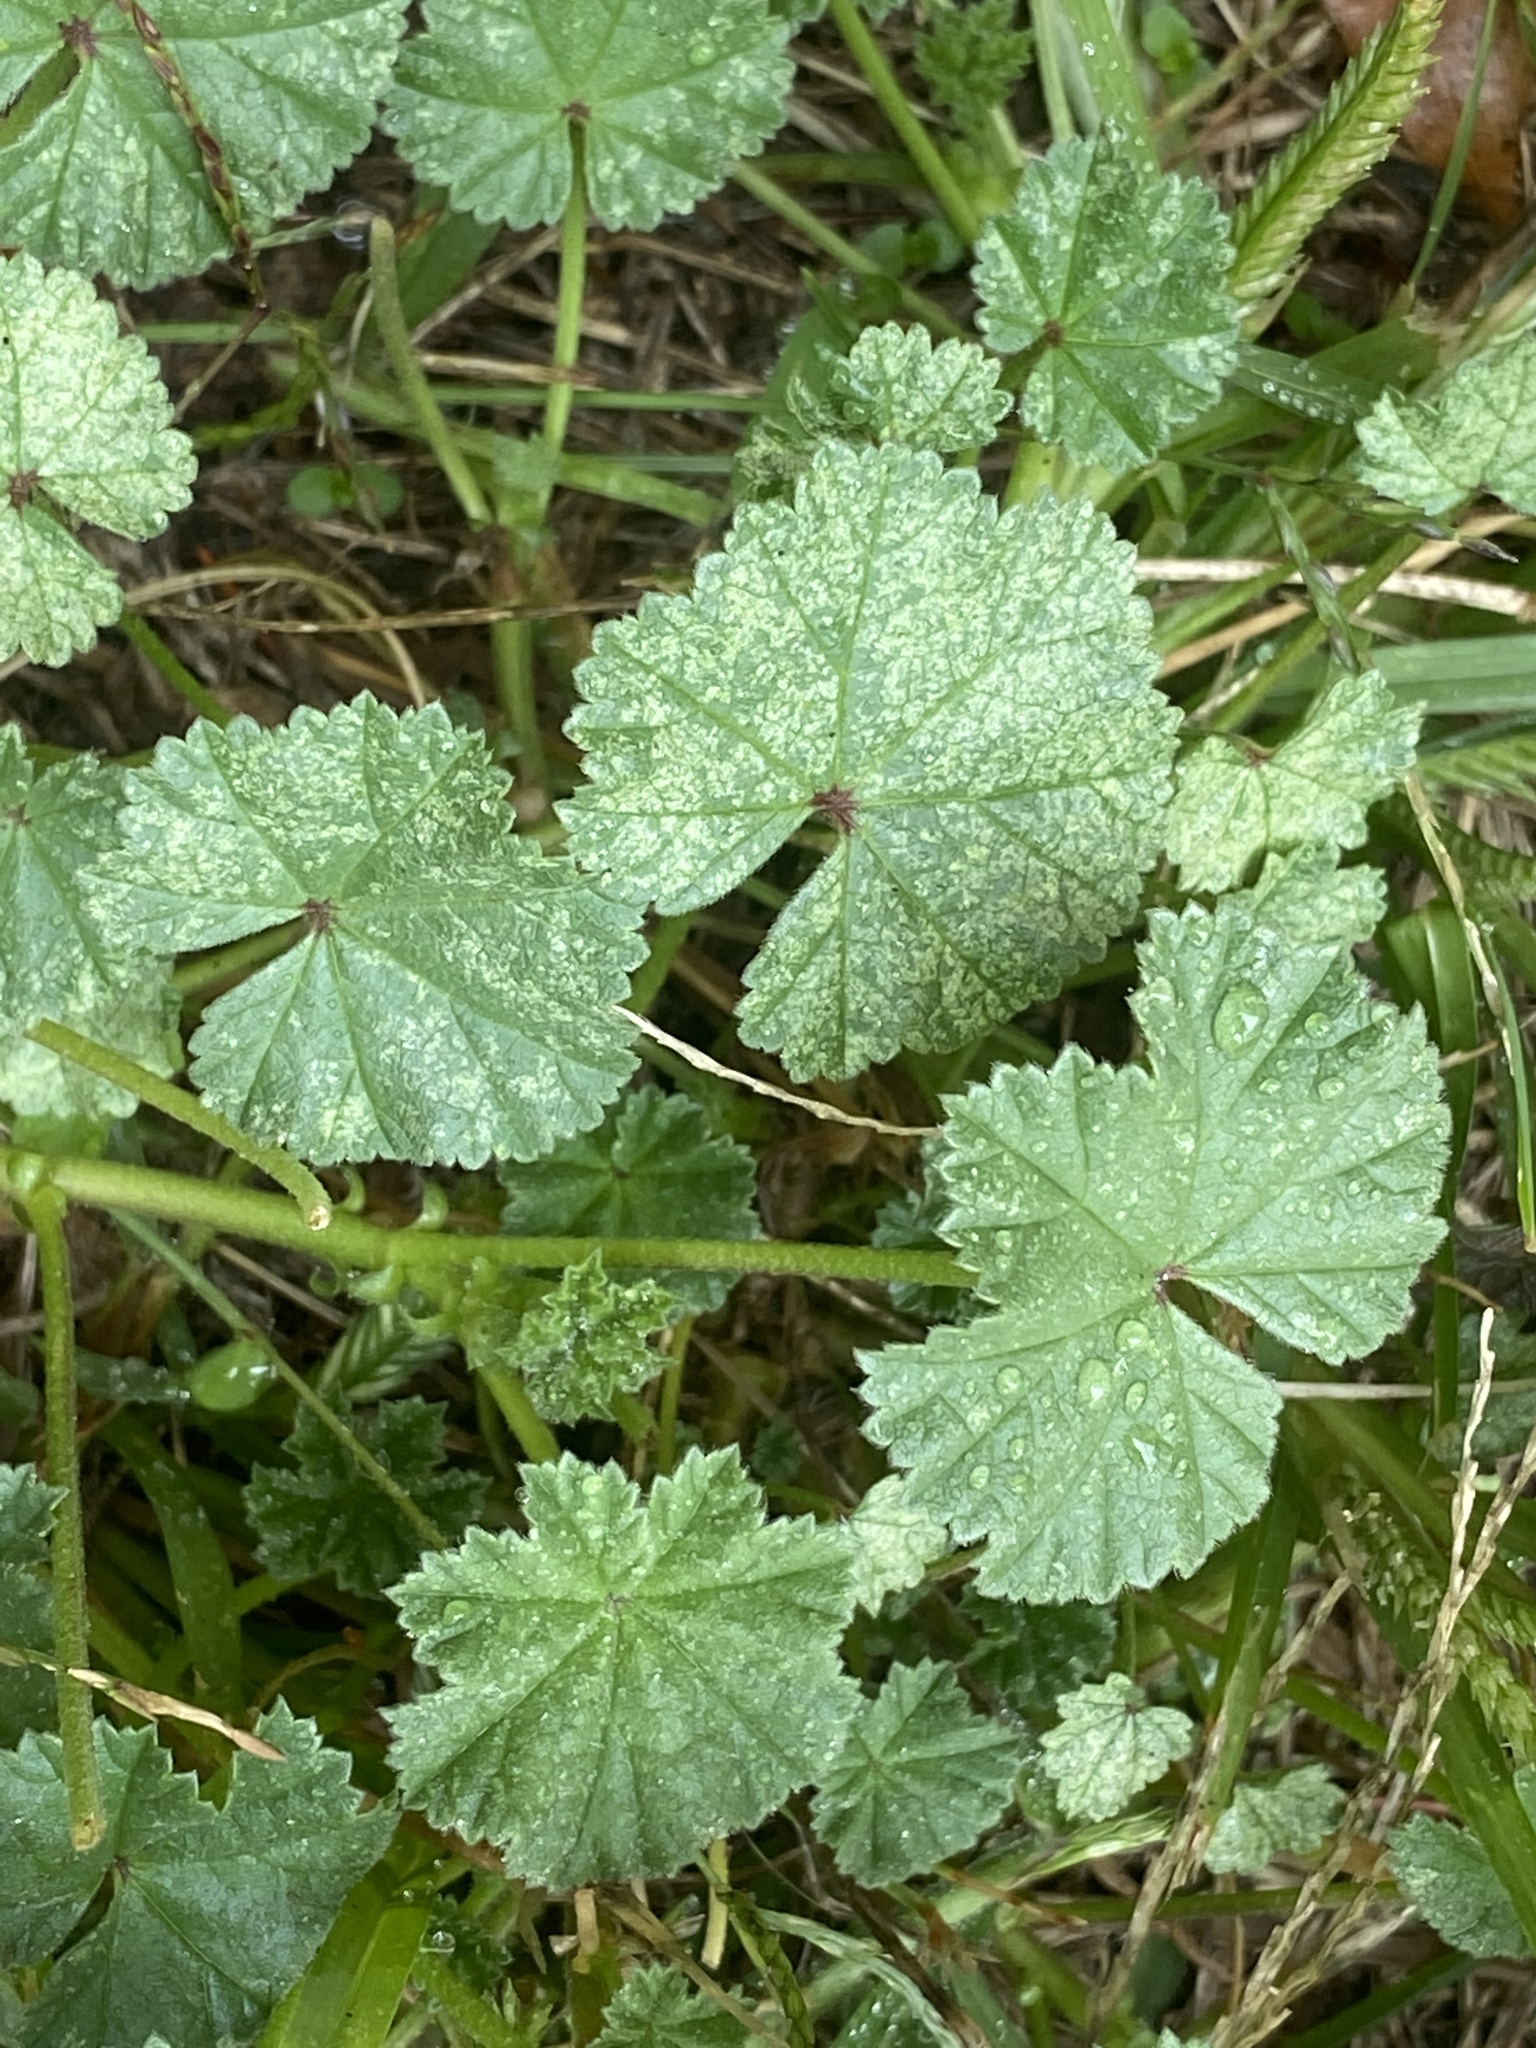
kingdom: Plantae
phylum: Tracheophyta
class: Magnoliopsida
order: Malvales
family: Malvaceae
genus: Malva
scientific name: Malva neglecta
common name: Common mallow
